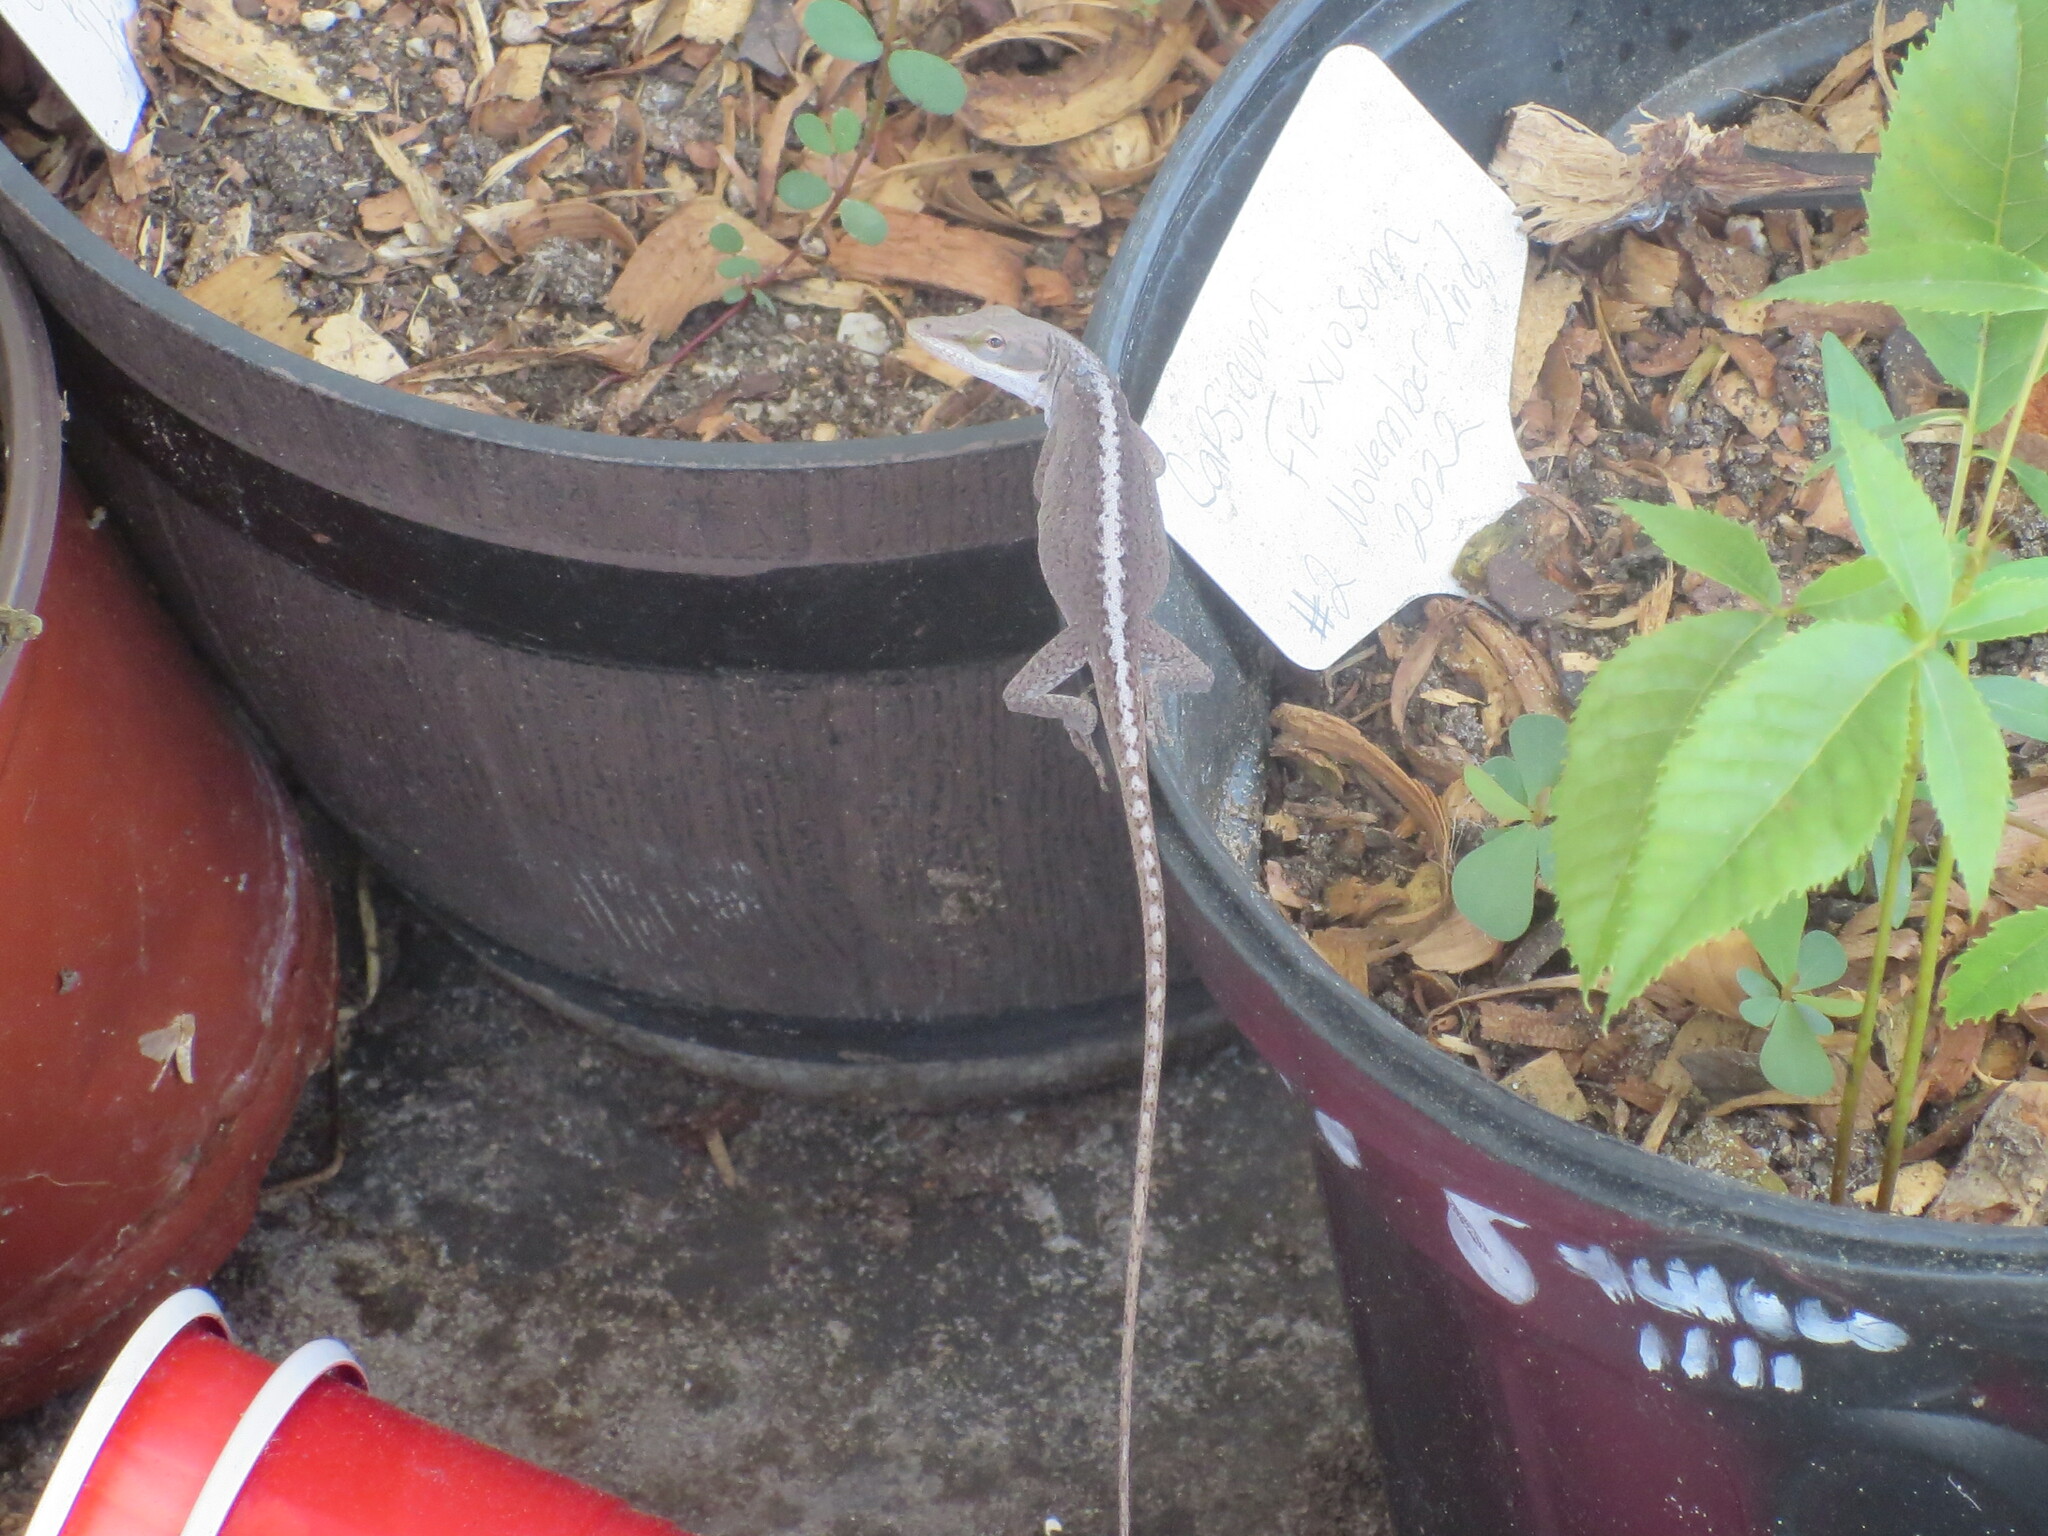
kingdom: Animalia
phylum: Chordata
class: Squamata
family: Dactyloidae
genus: Anolis
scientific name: Anolis carolinensis
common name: Green anole
